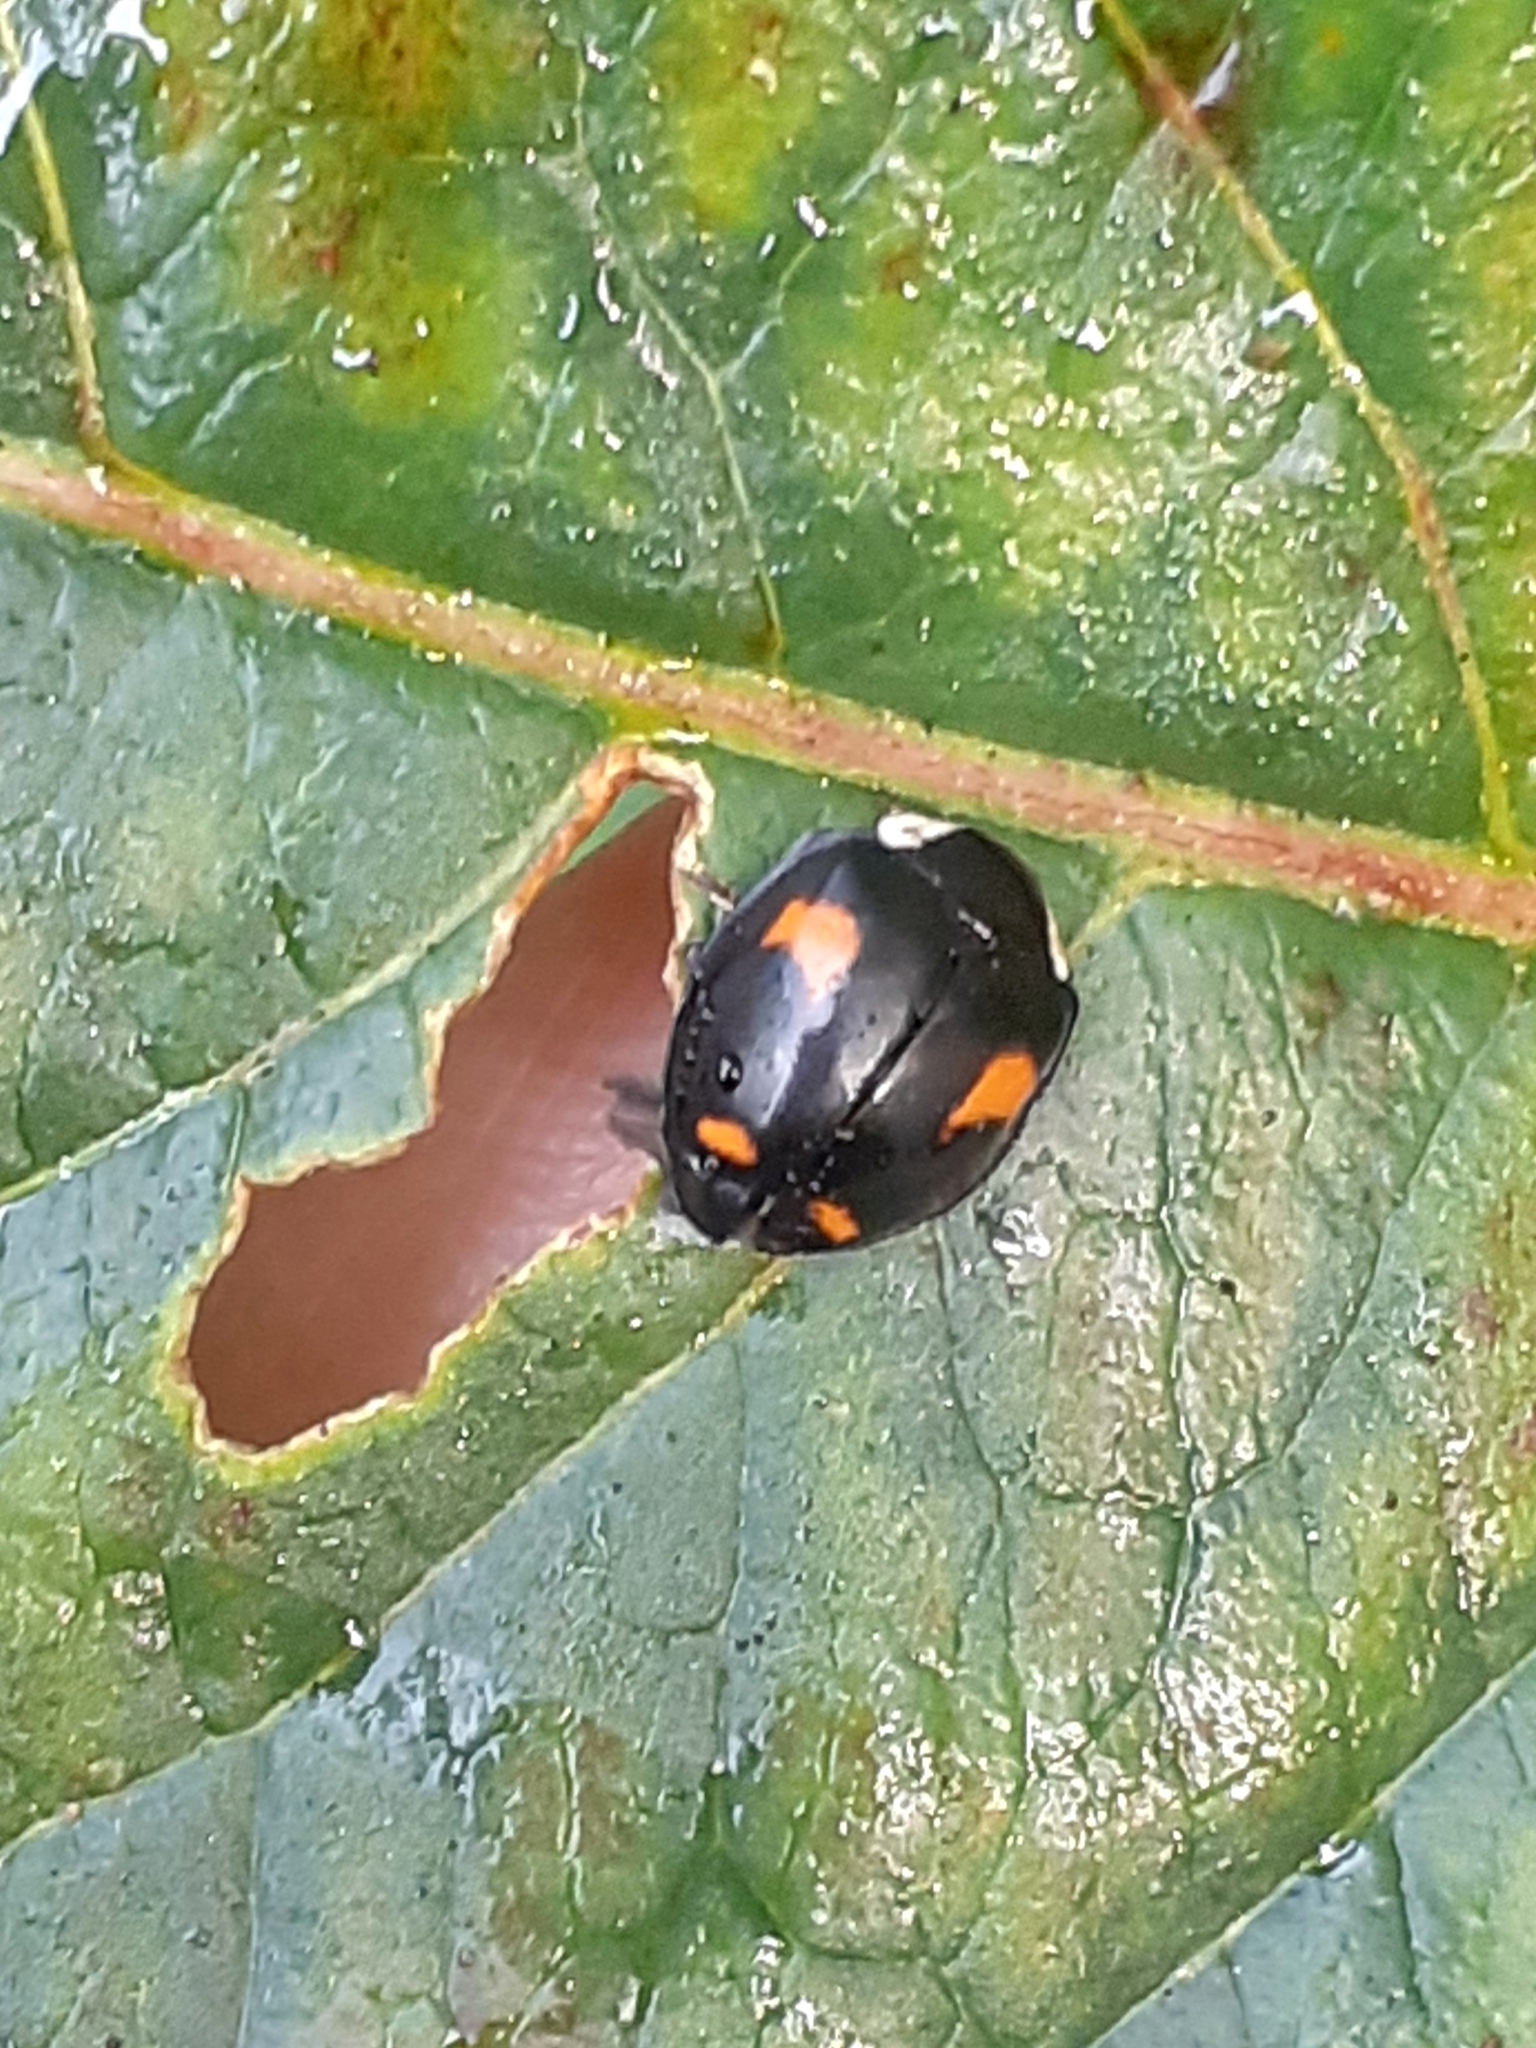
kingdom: Animalia
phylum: Arthropoda
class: Insecta
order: Coleoptera
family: Coccinellidae
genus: Harmonia
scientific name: Harmonia axyridis
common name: Harlequin ladybird
